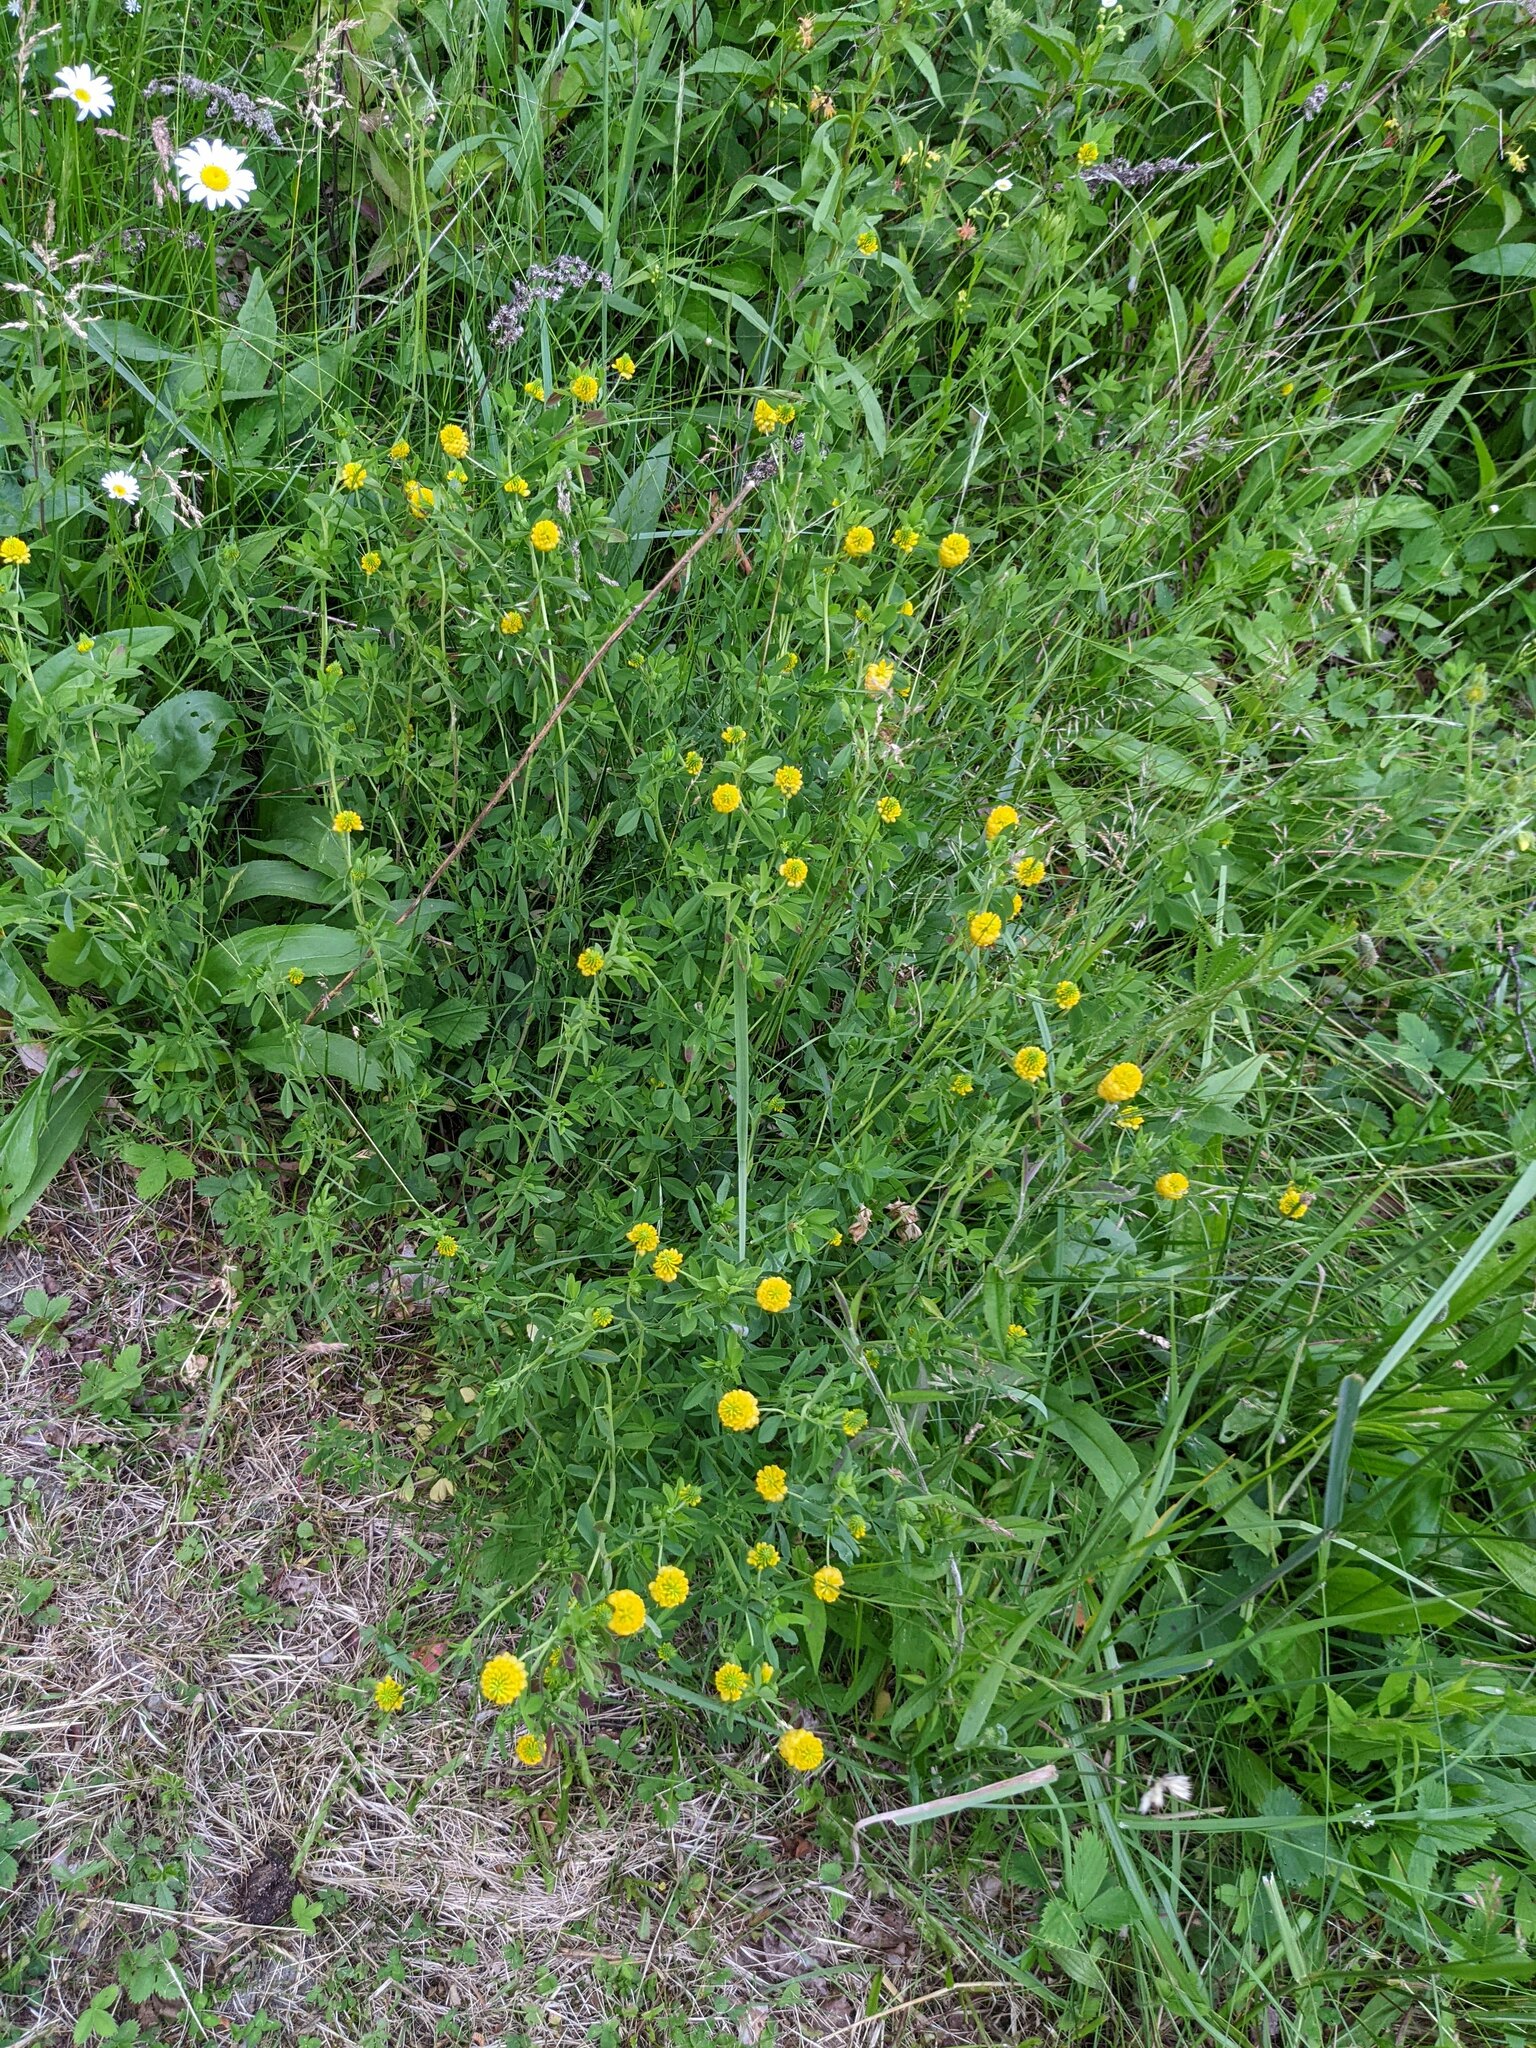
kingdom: Plantae
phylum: Tracheophyta
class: Magnoliopsida
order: Fabales
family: Fabaceae
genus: Trifolium
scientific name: Trifolium aureum
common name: Golden clover
